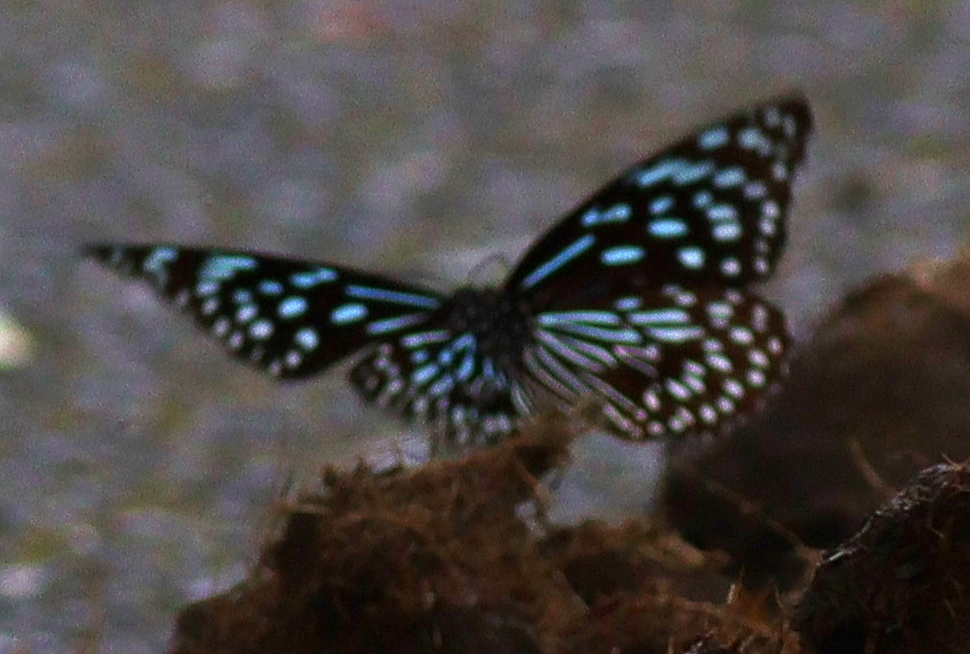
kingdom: Animalia
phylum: Arthropoda
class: Insecta
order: Lepidoptera
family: Nymphalidae
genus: Tirumala
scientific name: Tirumala septentrionis
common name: Dark blue tiger butterfly
